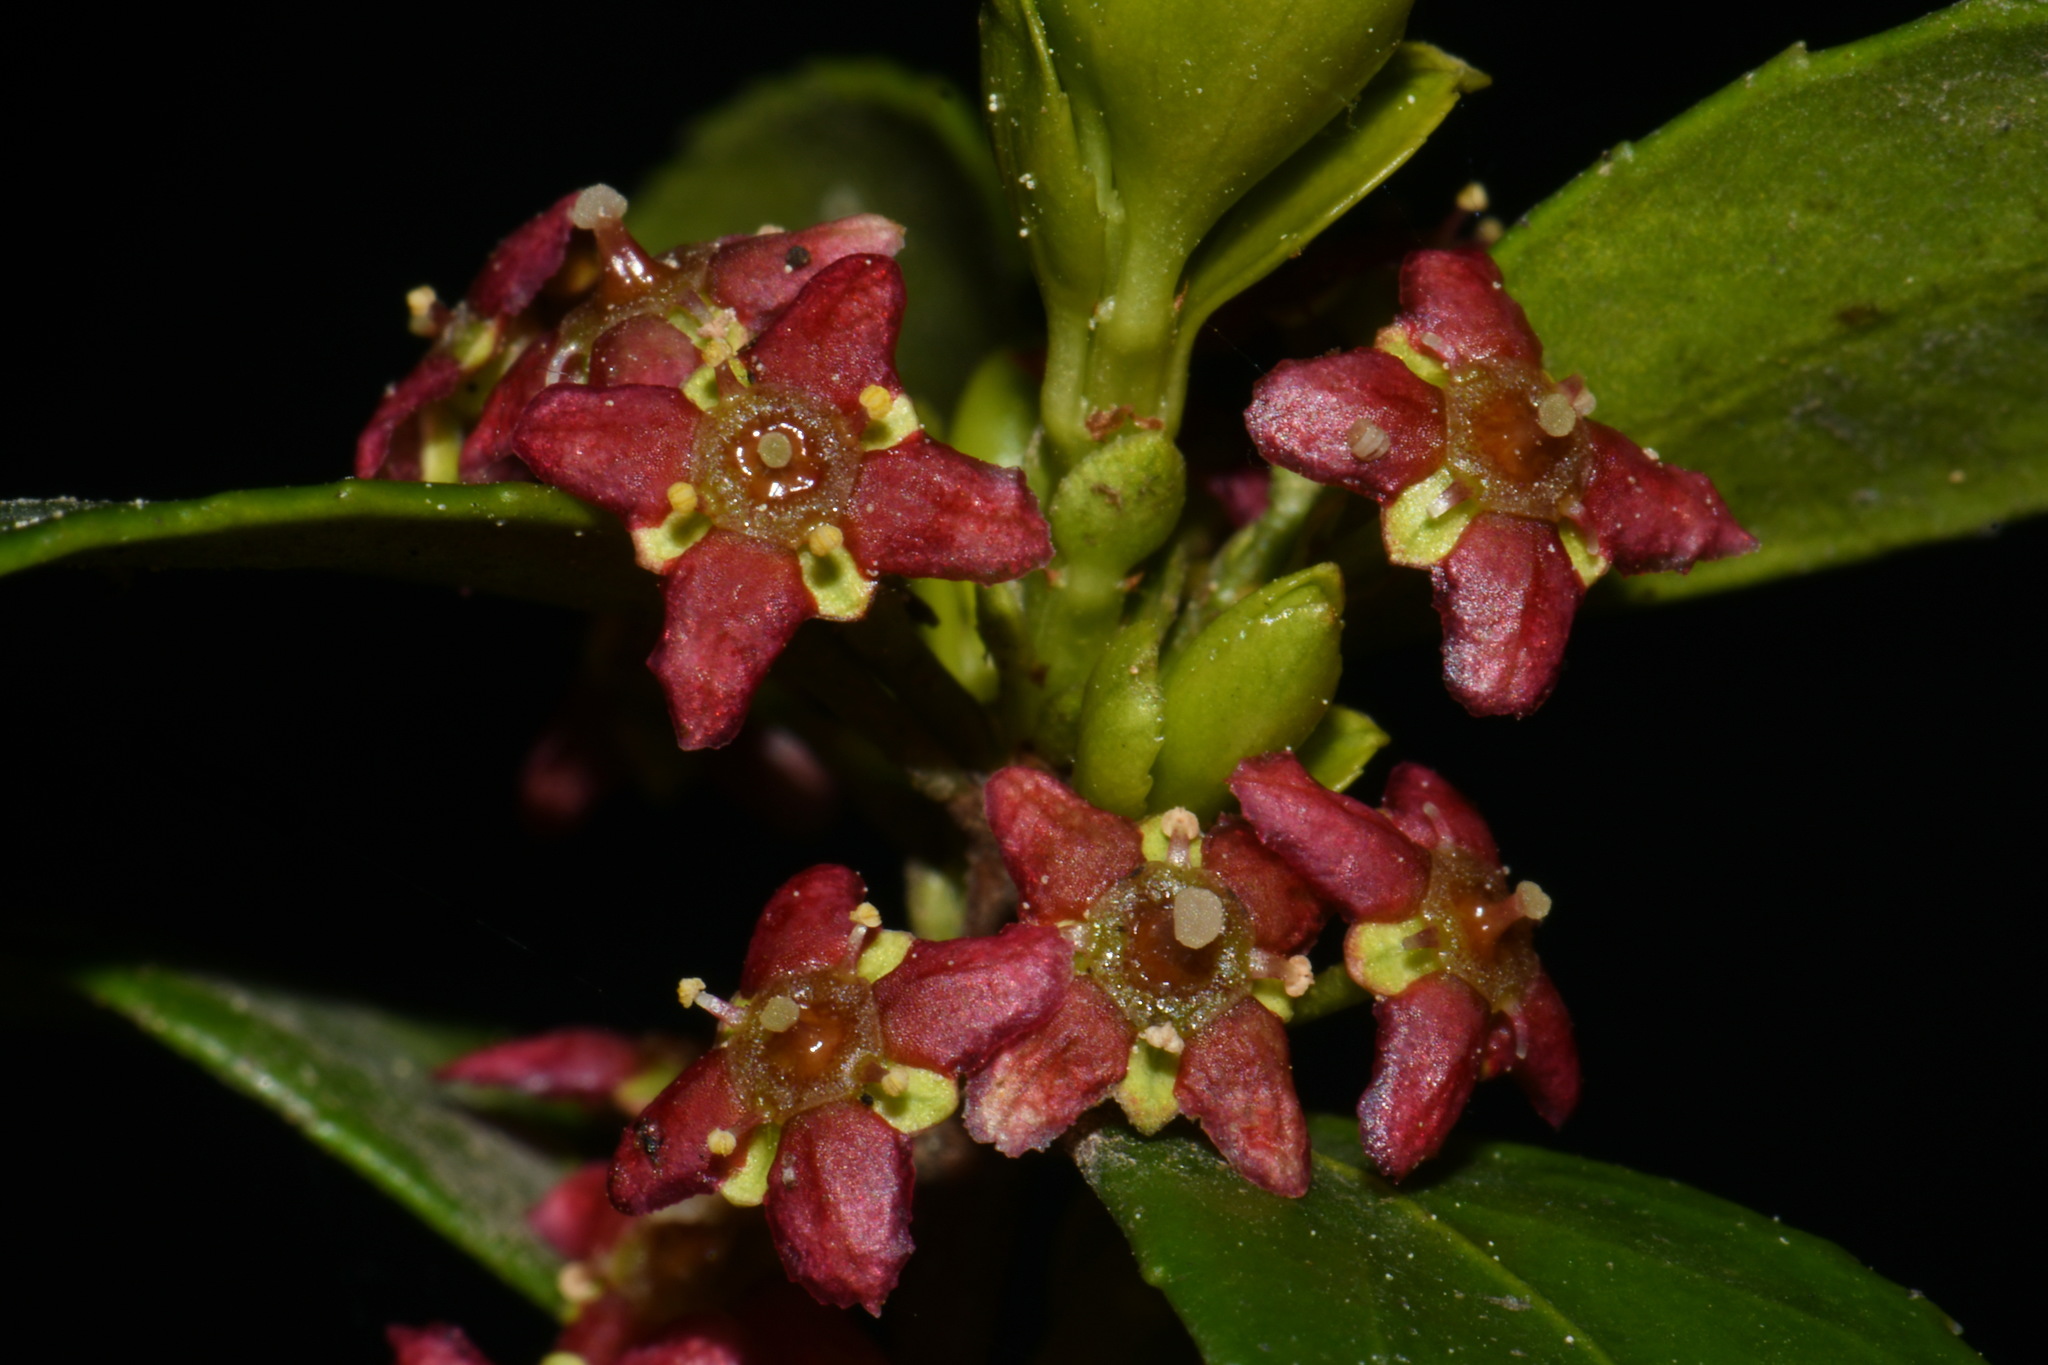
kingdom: Plantae
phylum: Tracheophyta
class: Magnoliopsida
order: Celastrales
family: Celastraceae
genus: Paxistima
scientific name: Paxistima myrsinites
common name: Mountain-lover
